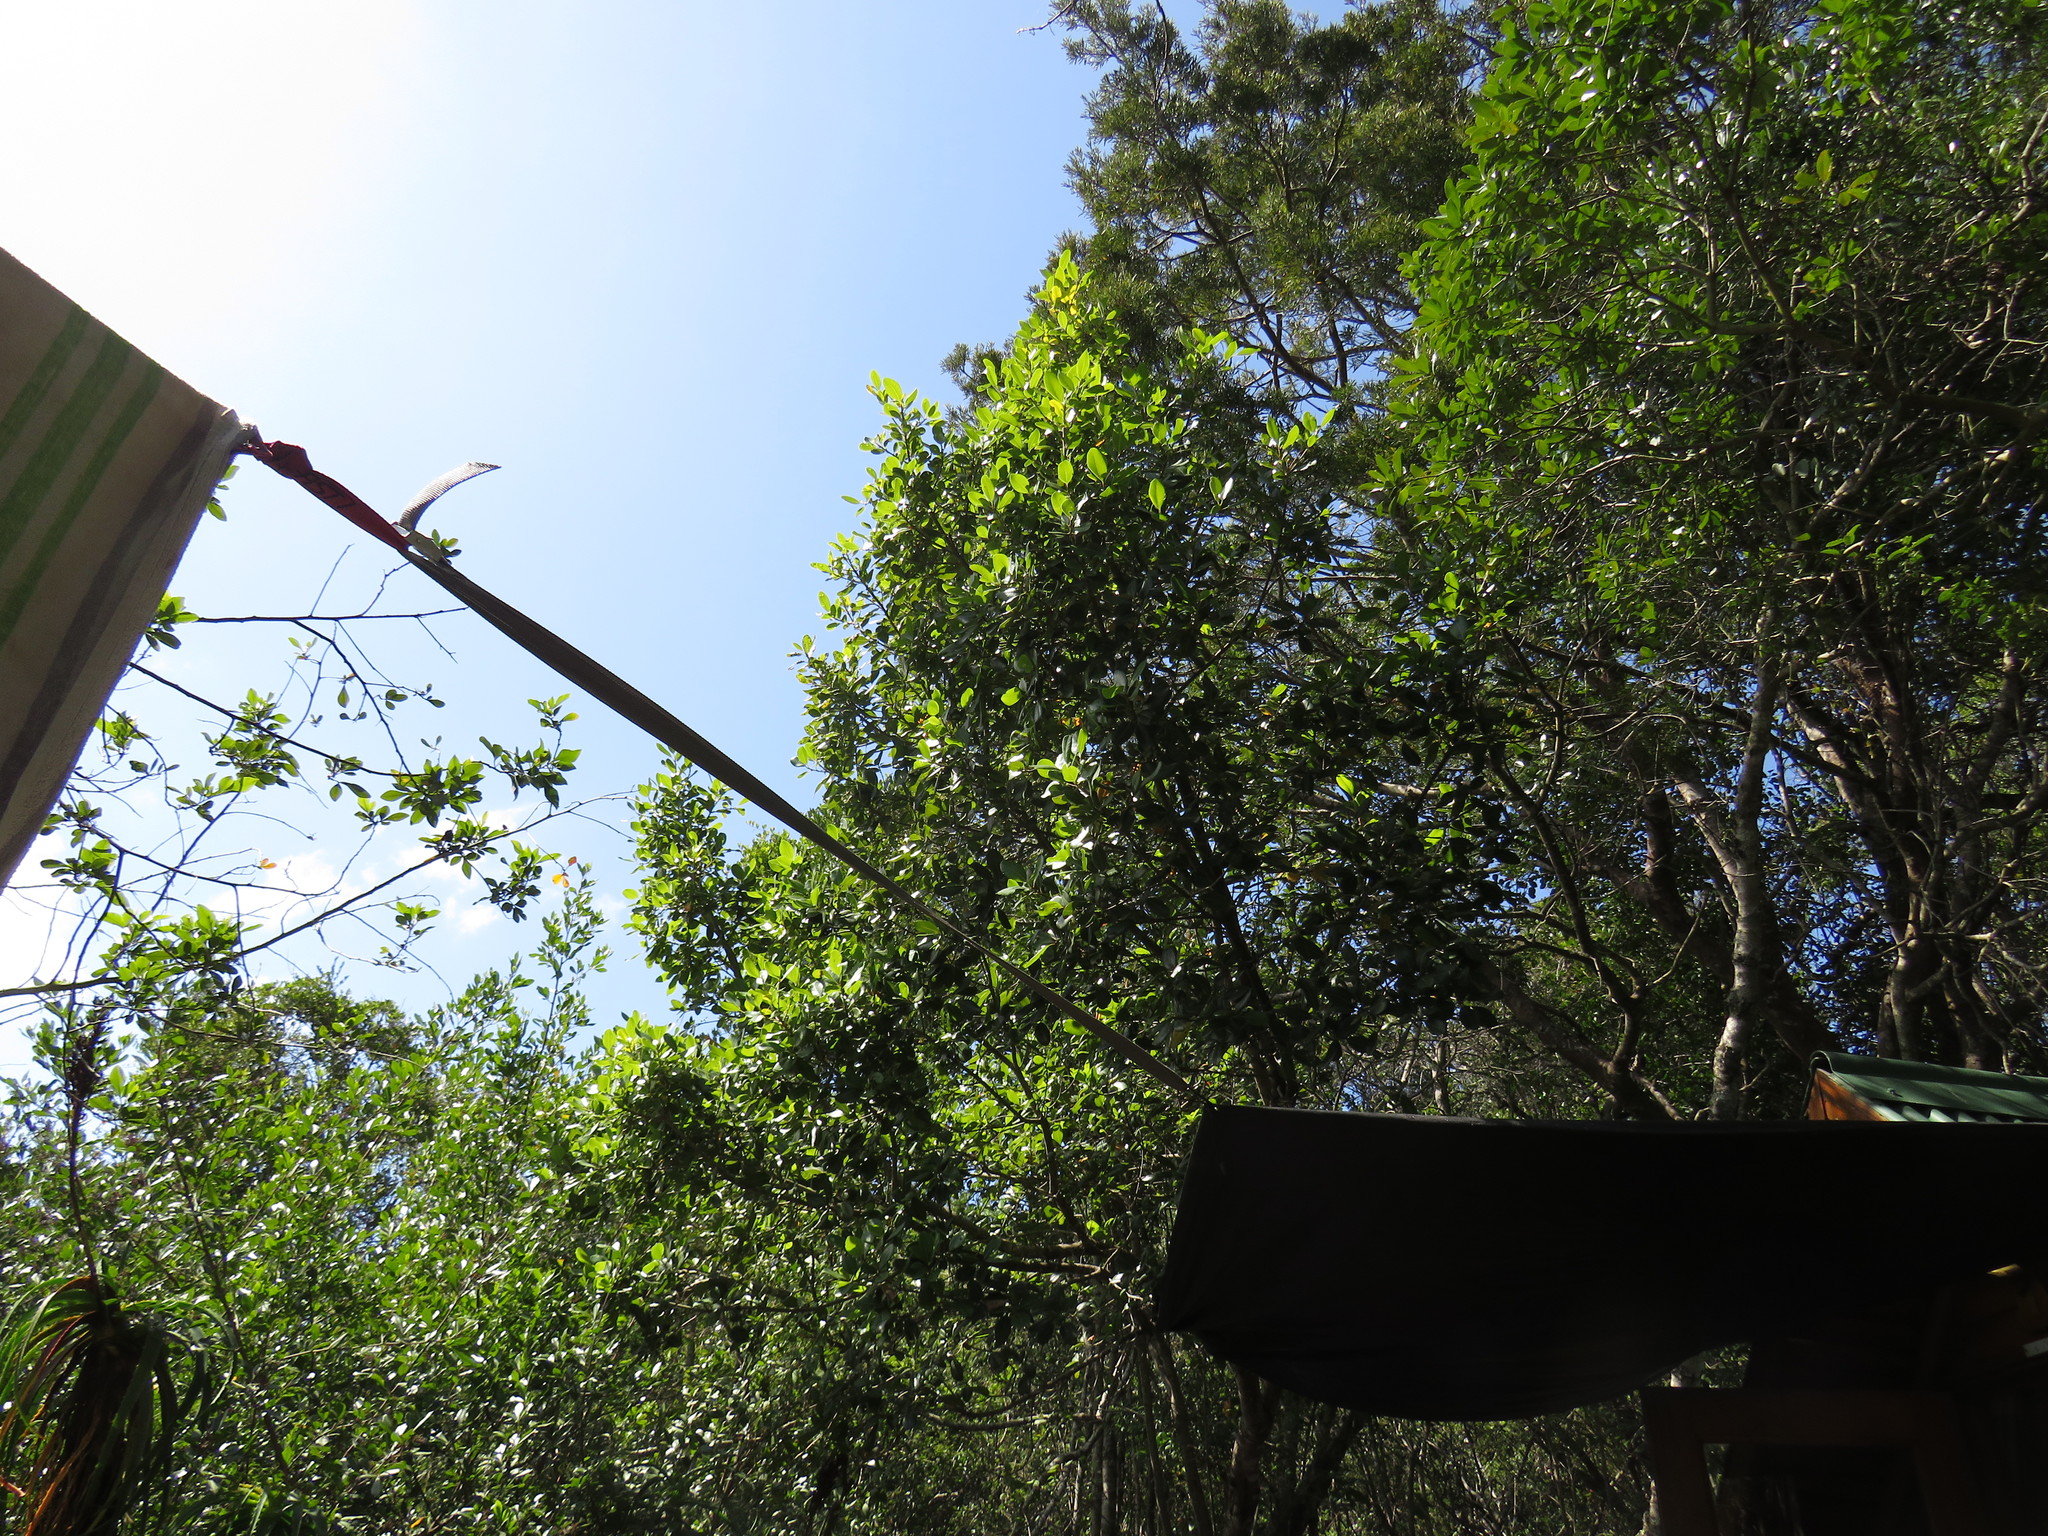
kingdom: Animalia
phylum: Arthropoda
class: Arachnida
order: Trombidiformes
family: Eriophyidae
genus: Eriophyes
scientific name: Eriophyes
